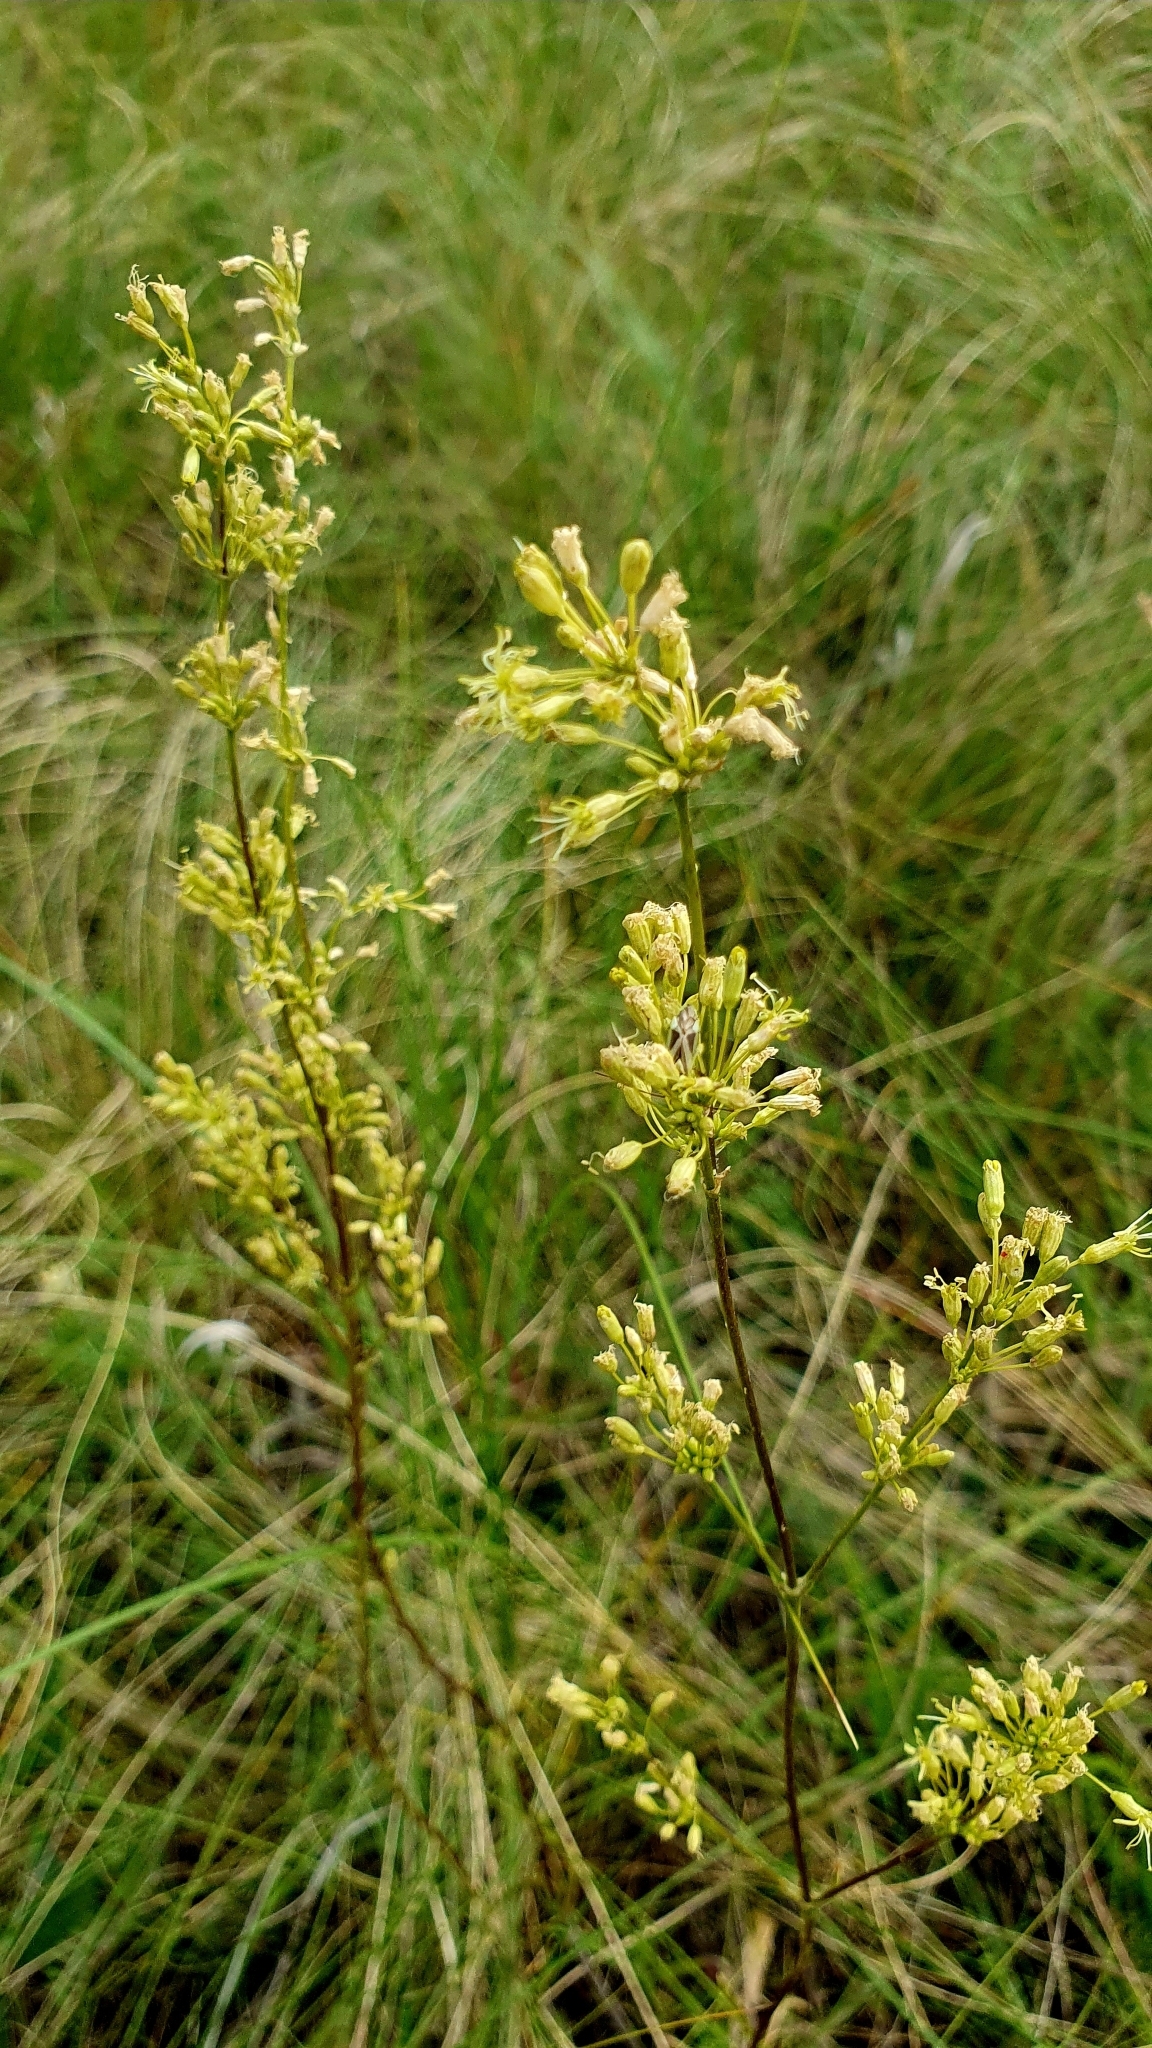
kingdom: Plantae
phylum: Tracheophyta
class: Magnoliopsida
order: Caryophyllales
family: Caryophyllaceae
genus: Silene
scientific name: Silene chersonensis
